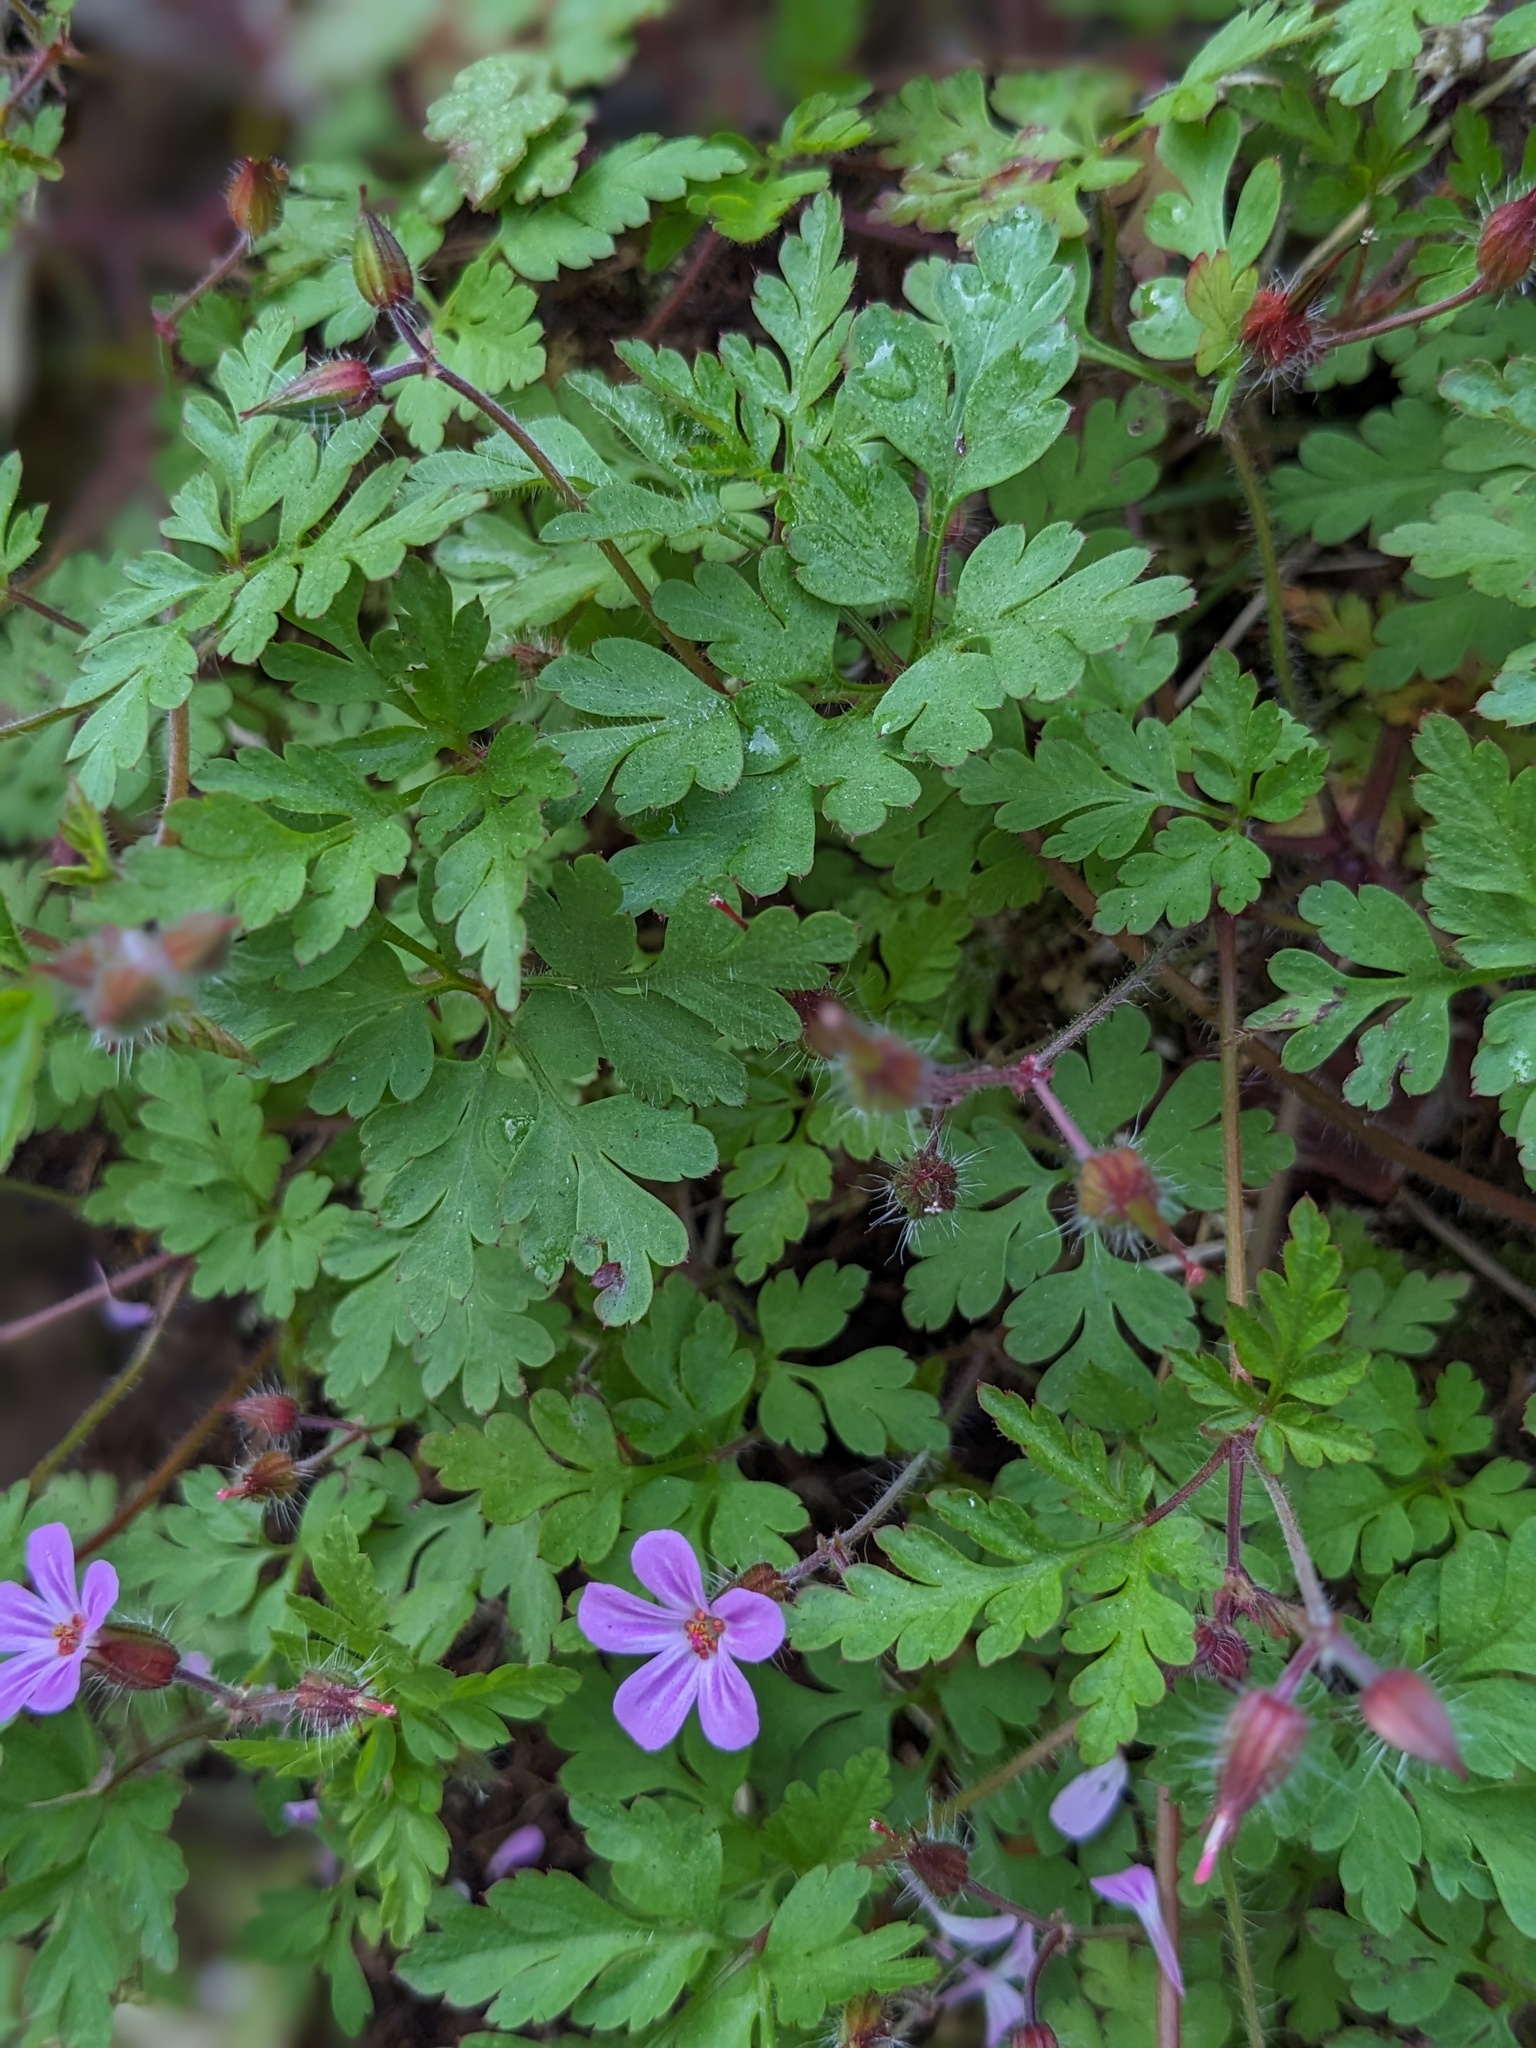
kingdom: Plantae
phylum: Tracheophyta
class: Magnoliopsida
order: Geraniales
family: Geraniaceae
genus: Geranium
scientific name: Geranium robertianum
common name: Herb-robert
